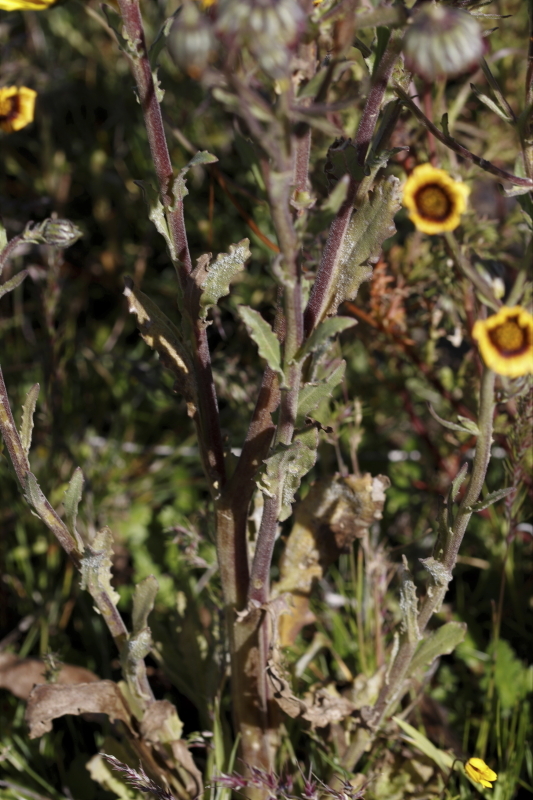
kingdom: Plantae
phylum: Tracheophyta
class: Magnoliopsida
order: Asterales
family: Asteraceae
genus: Osteospermum
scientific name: Osteospermum monstrosum
